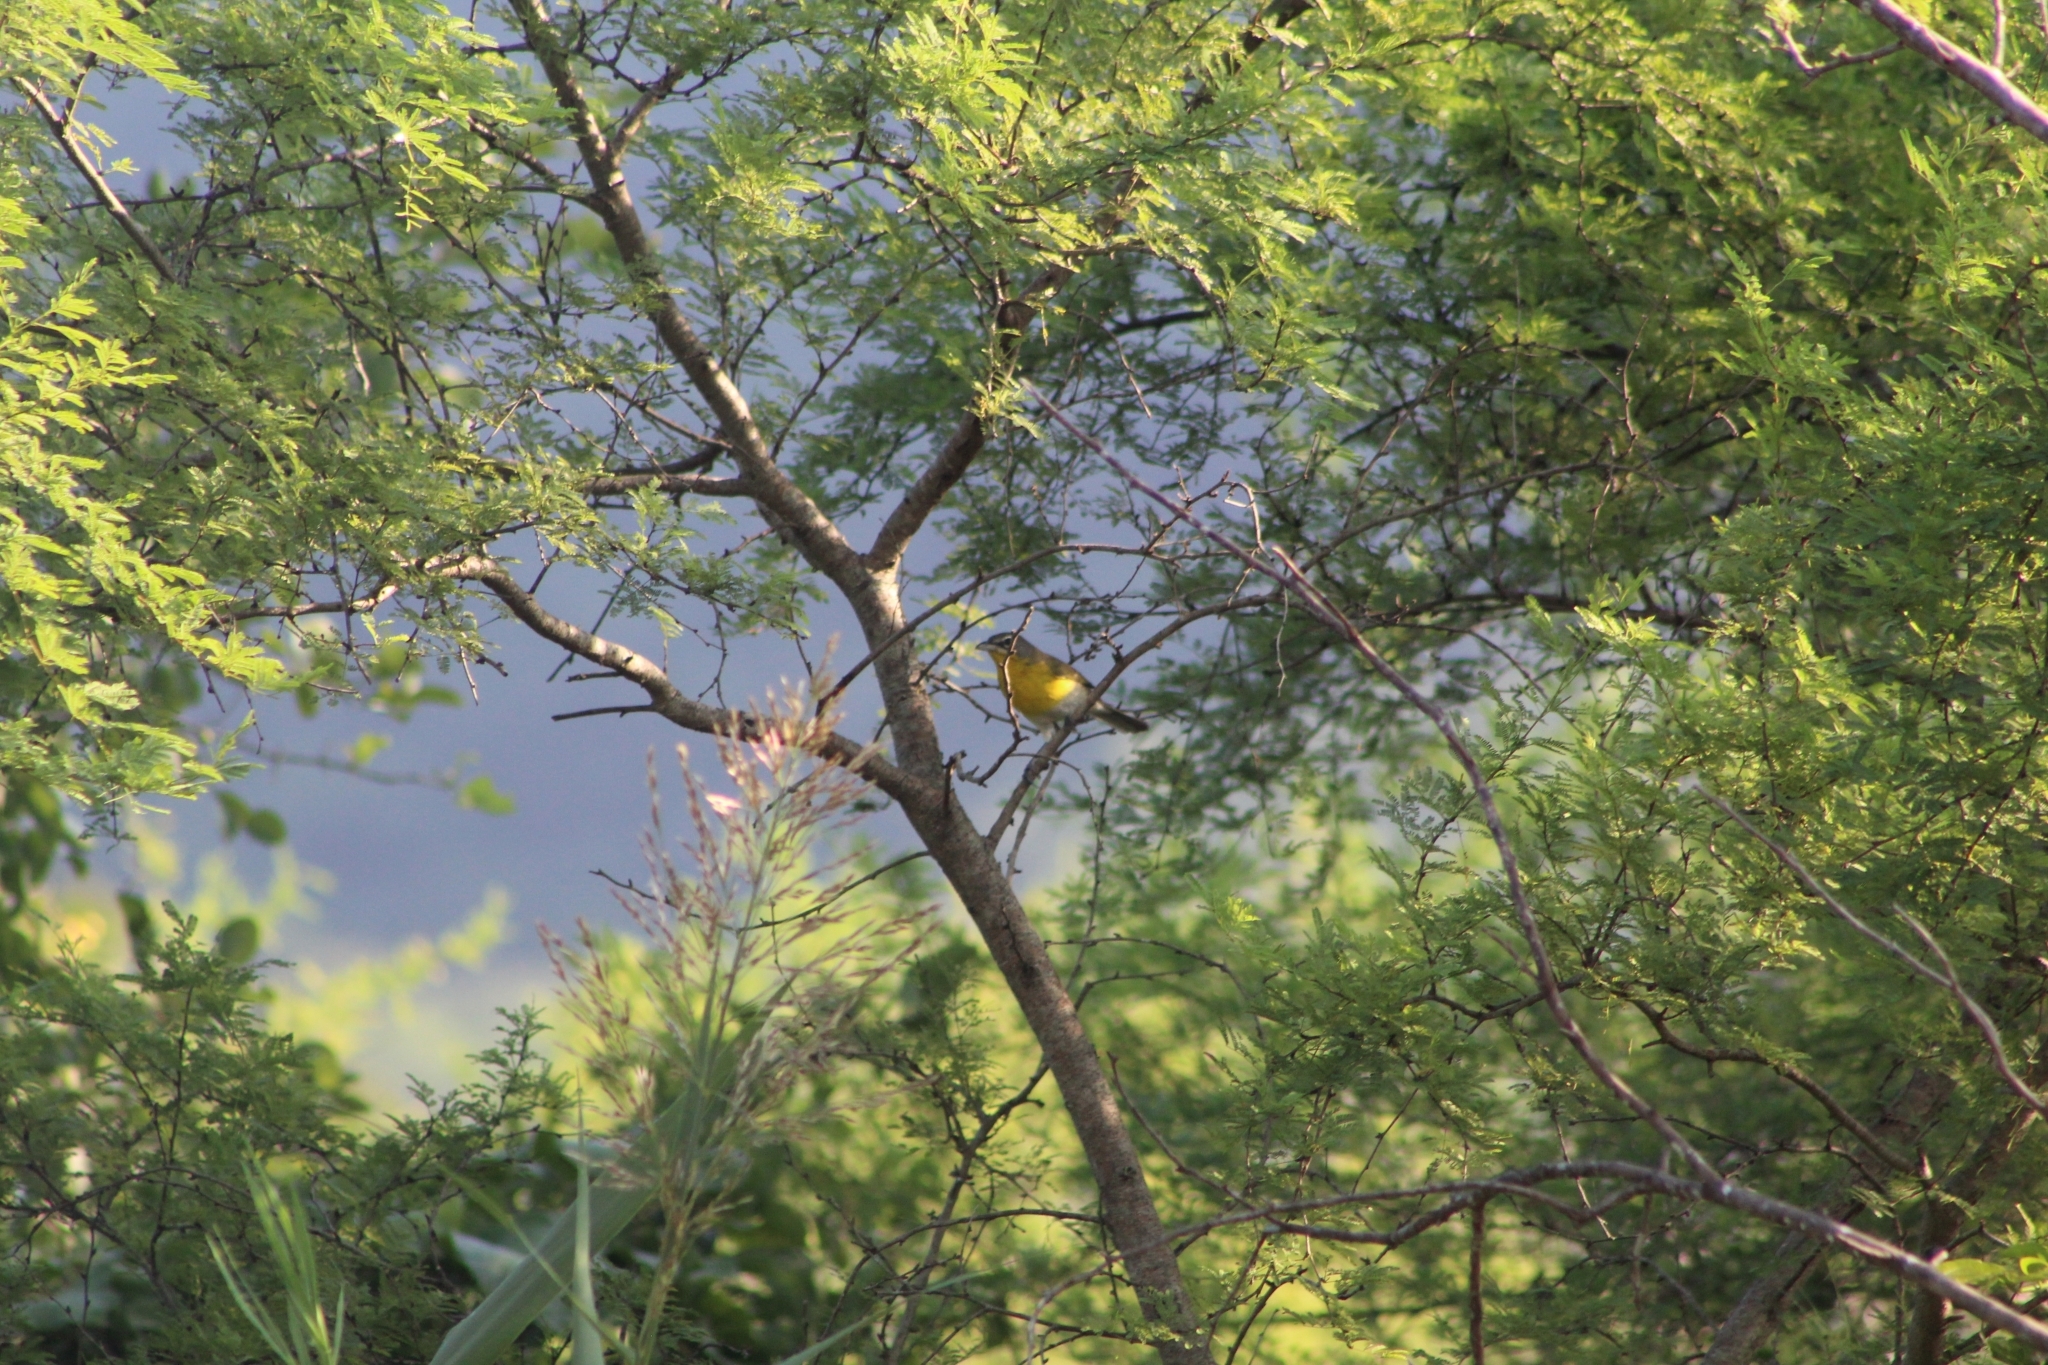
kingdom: Animalia
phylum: Chordata
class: Aves
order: Passeriformes
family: Parulidae
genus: Icteria
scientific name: Icteria virens
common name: Yellow-breasted chat
